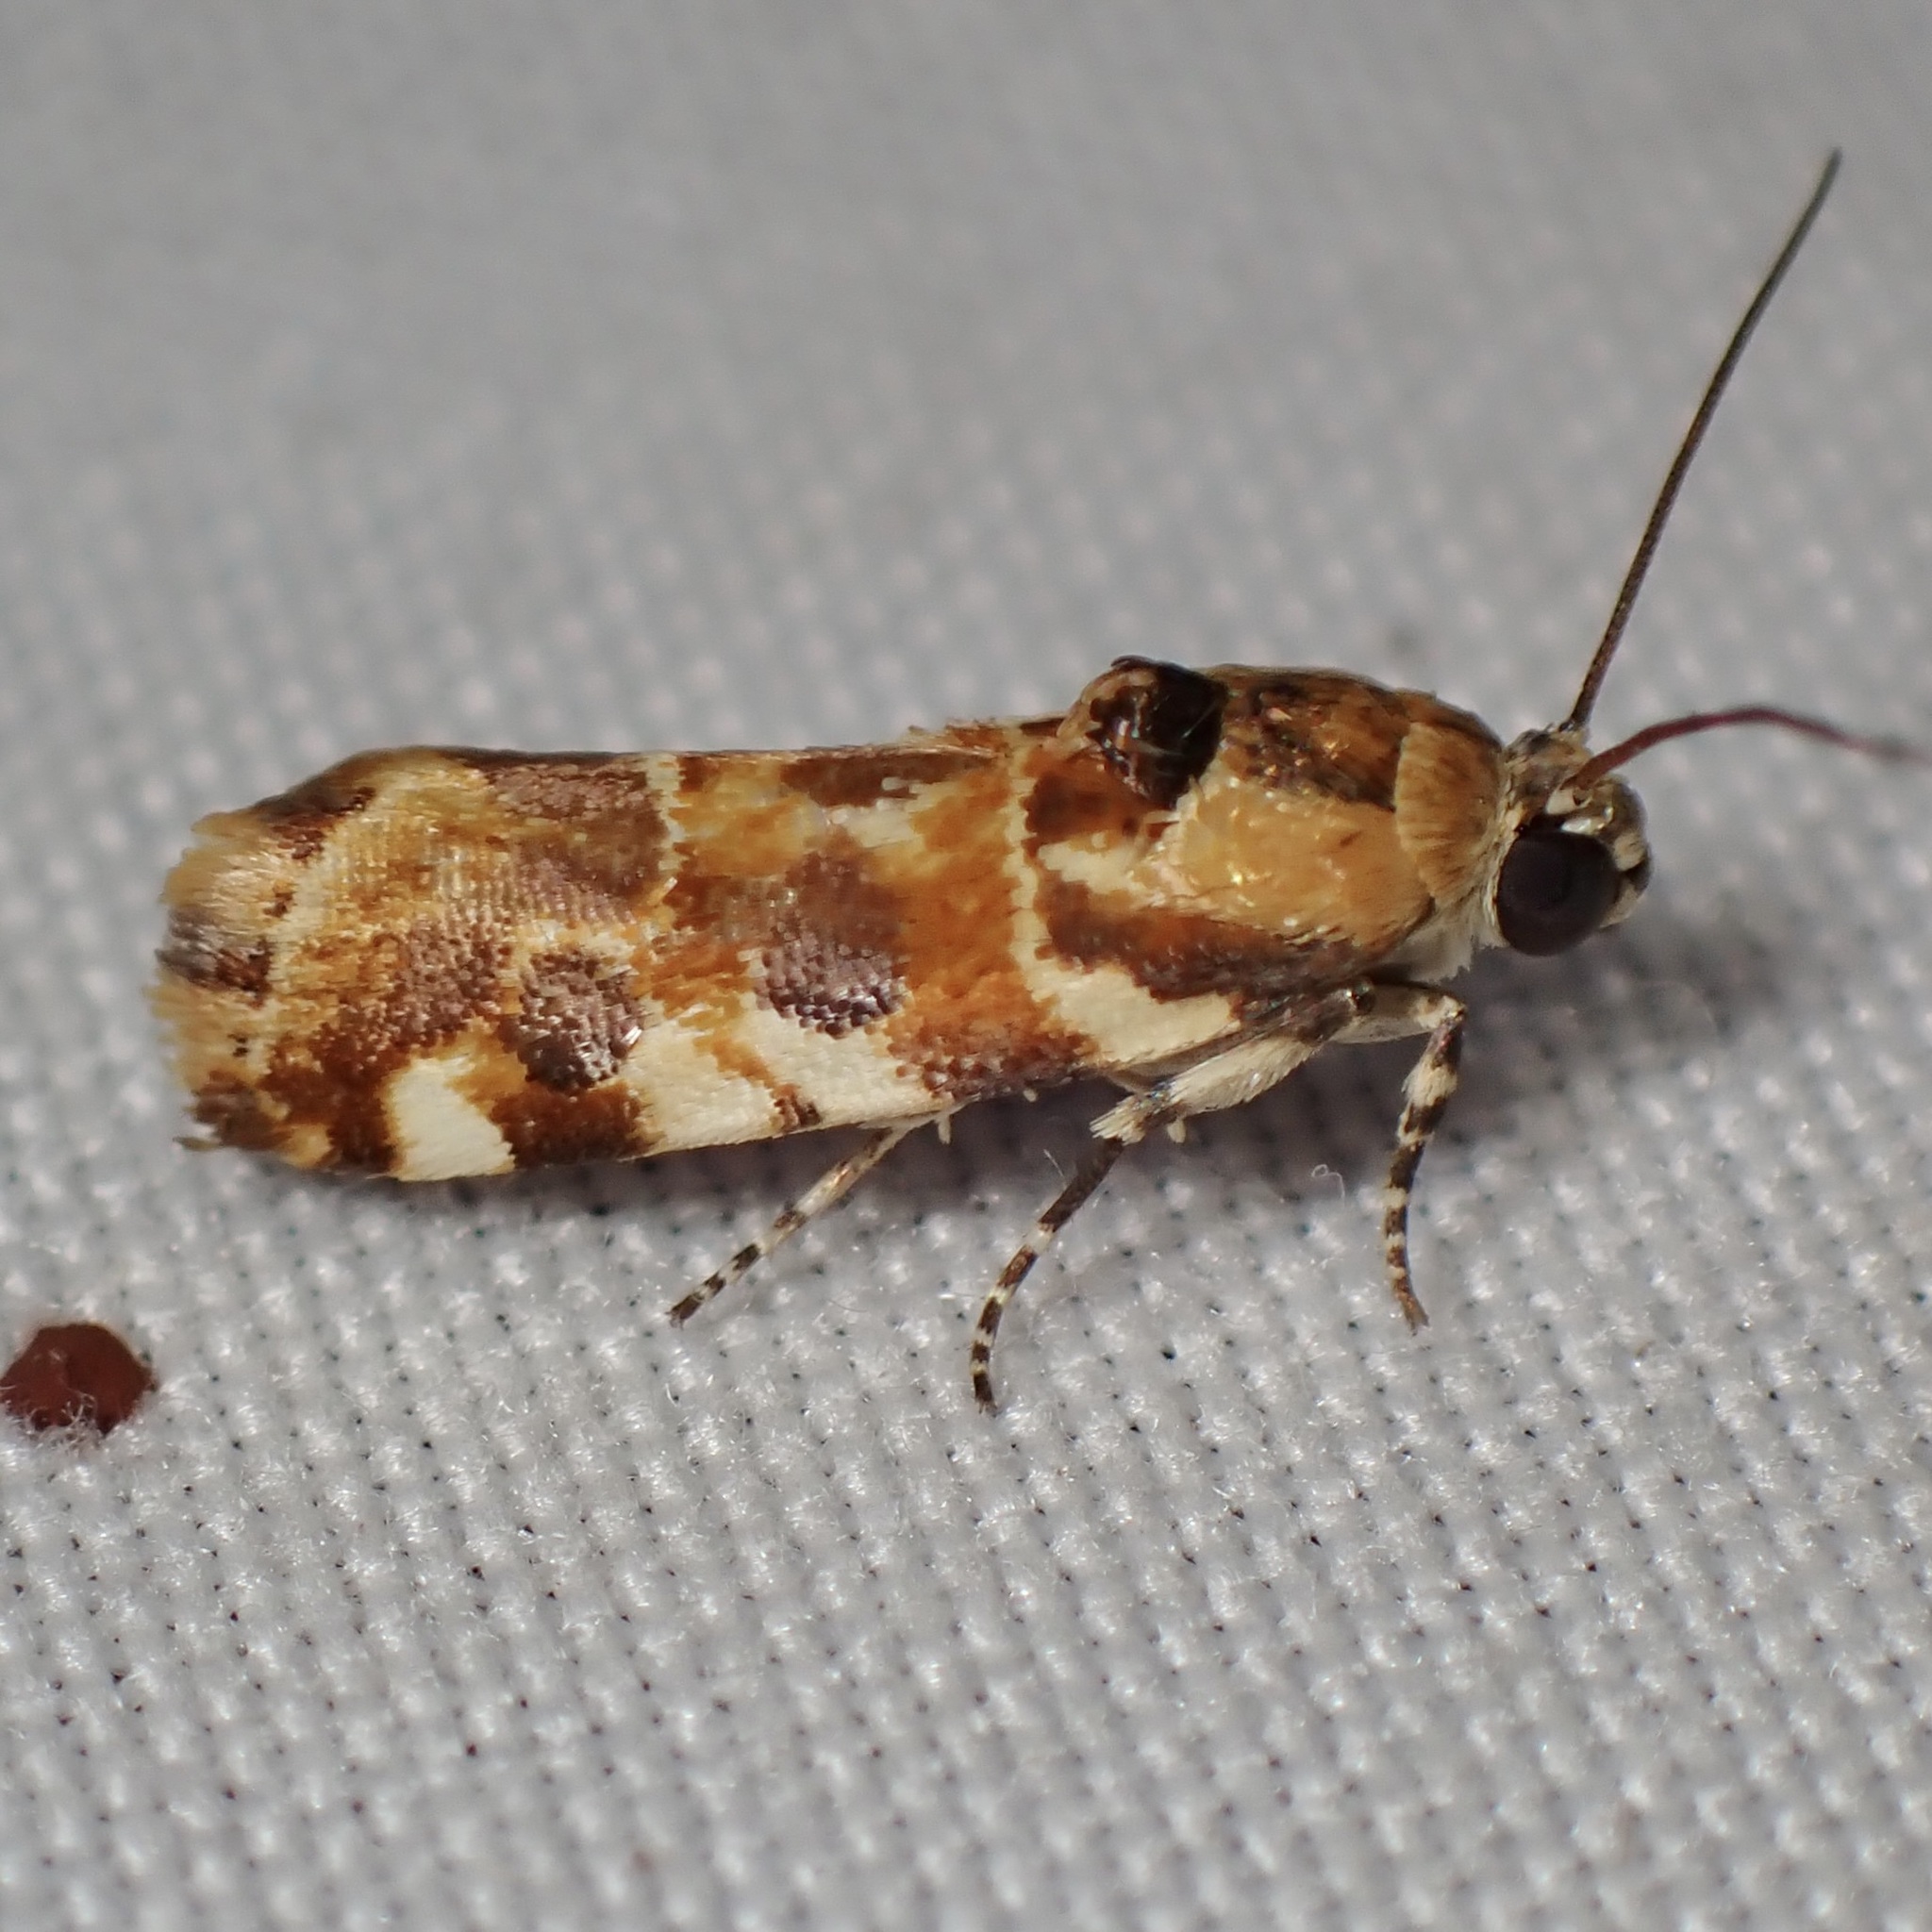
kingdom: Animalia
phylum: Arthropoda
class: Insecta
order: Lepidoptera
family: Noctuidae
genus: Spragueia
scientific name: Spragueia jaguaralis
